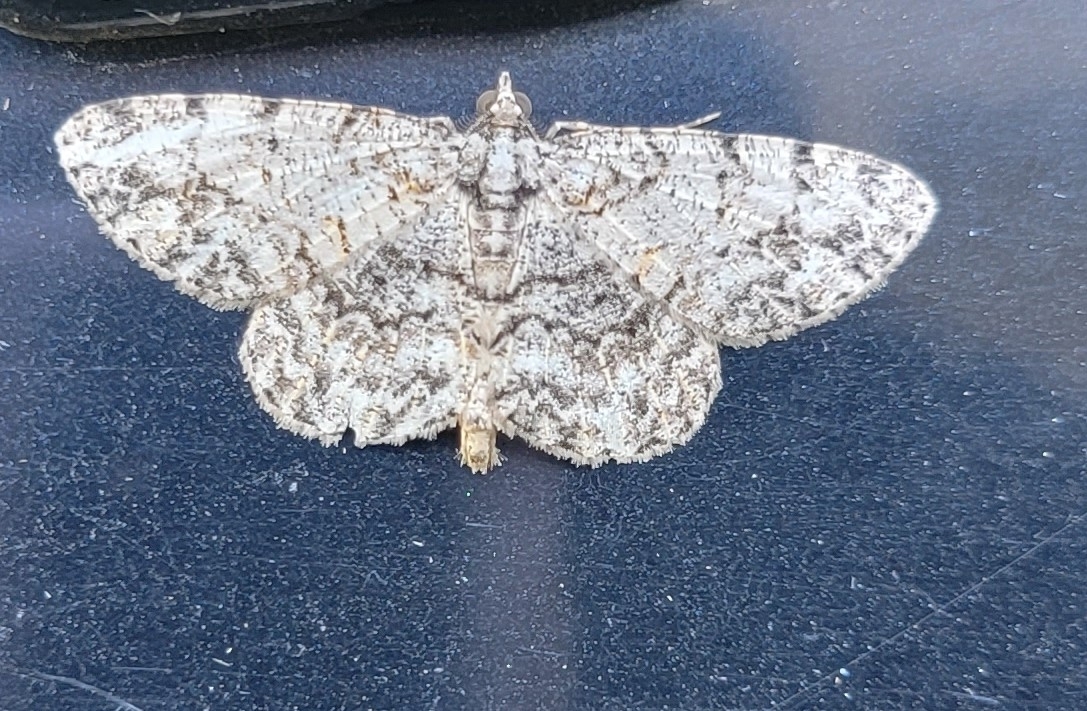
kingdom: Animalia
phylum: Arthropoda
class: Insecta
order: Lepidoptera
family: Geometridae
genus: Protoboarmia
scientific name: Protoboarmia porcelaria
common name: Porcelain gray
